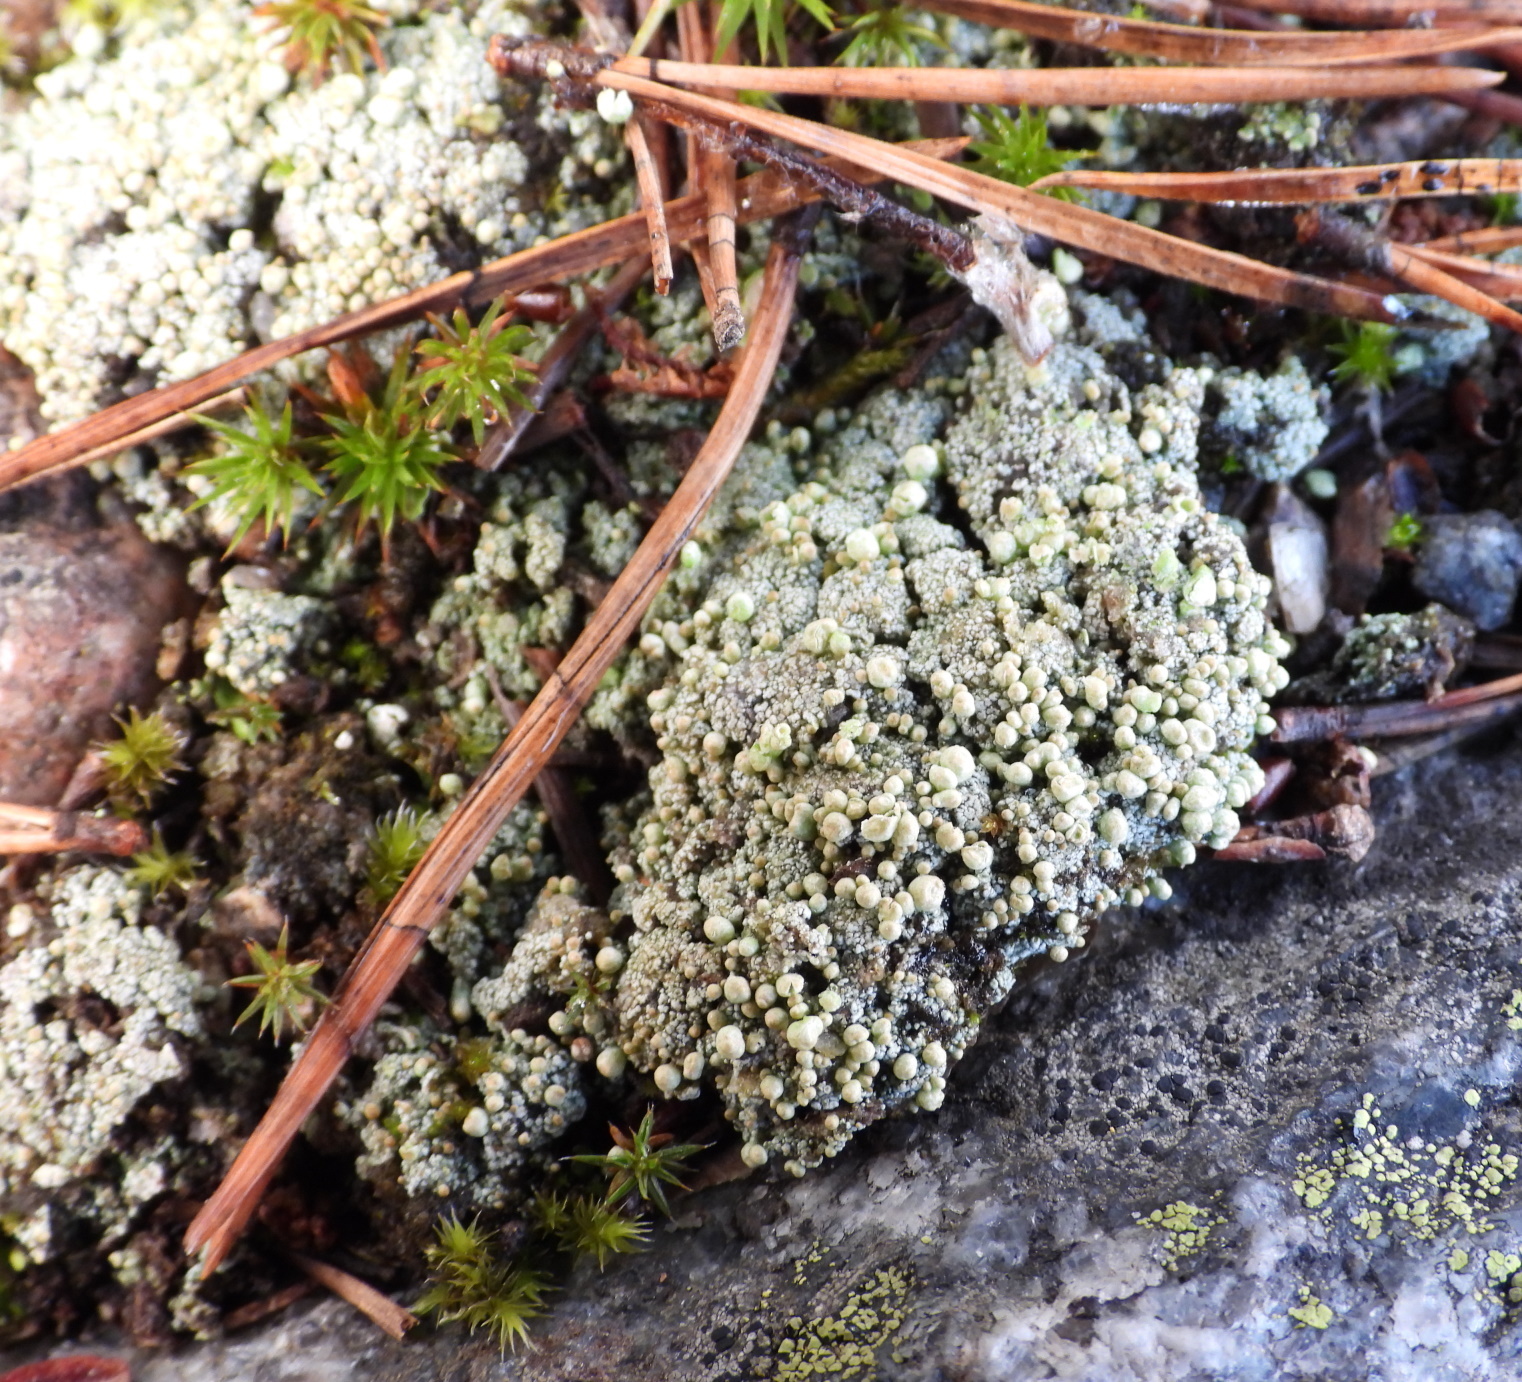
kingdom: Fungi
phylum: Ascomycota
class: Lecanoromycetes
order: Lecanorales
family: Cladoniaceae
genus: Pycnothelia
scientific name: Pycnothelia papillaria
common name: Nipple lichen
